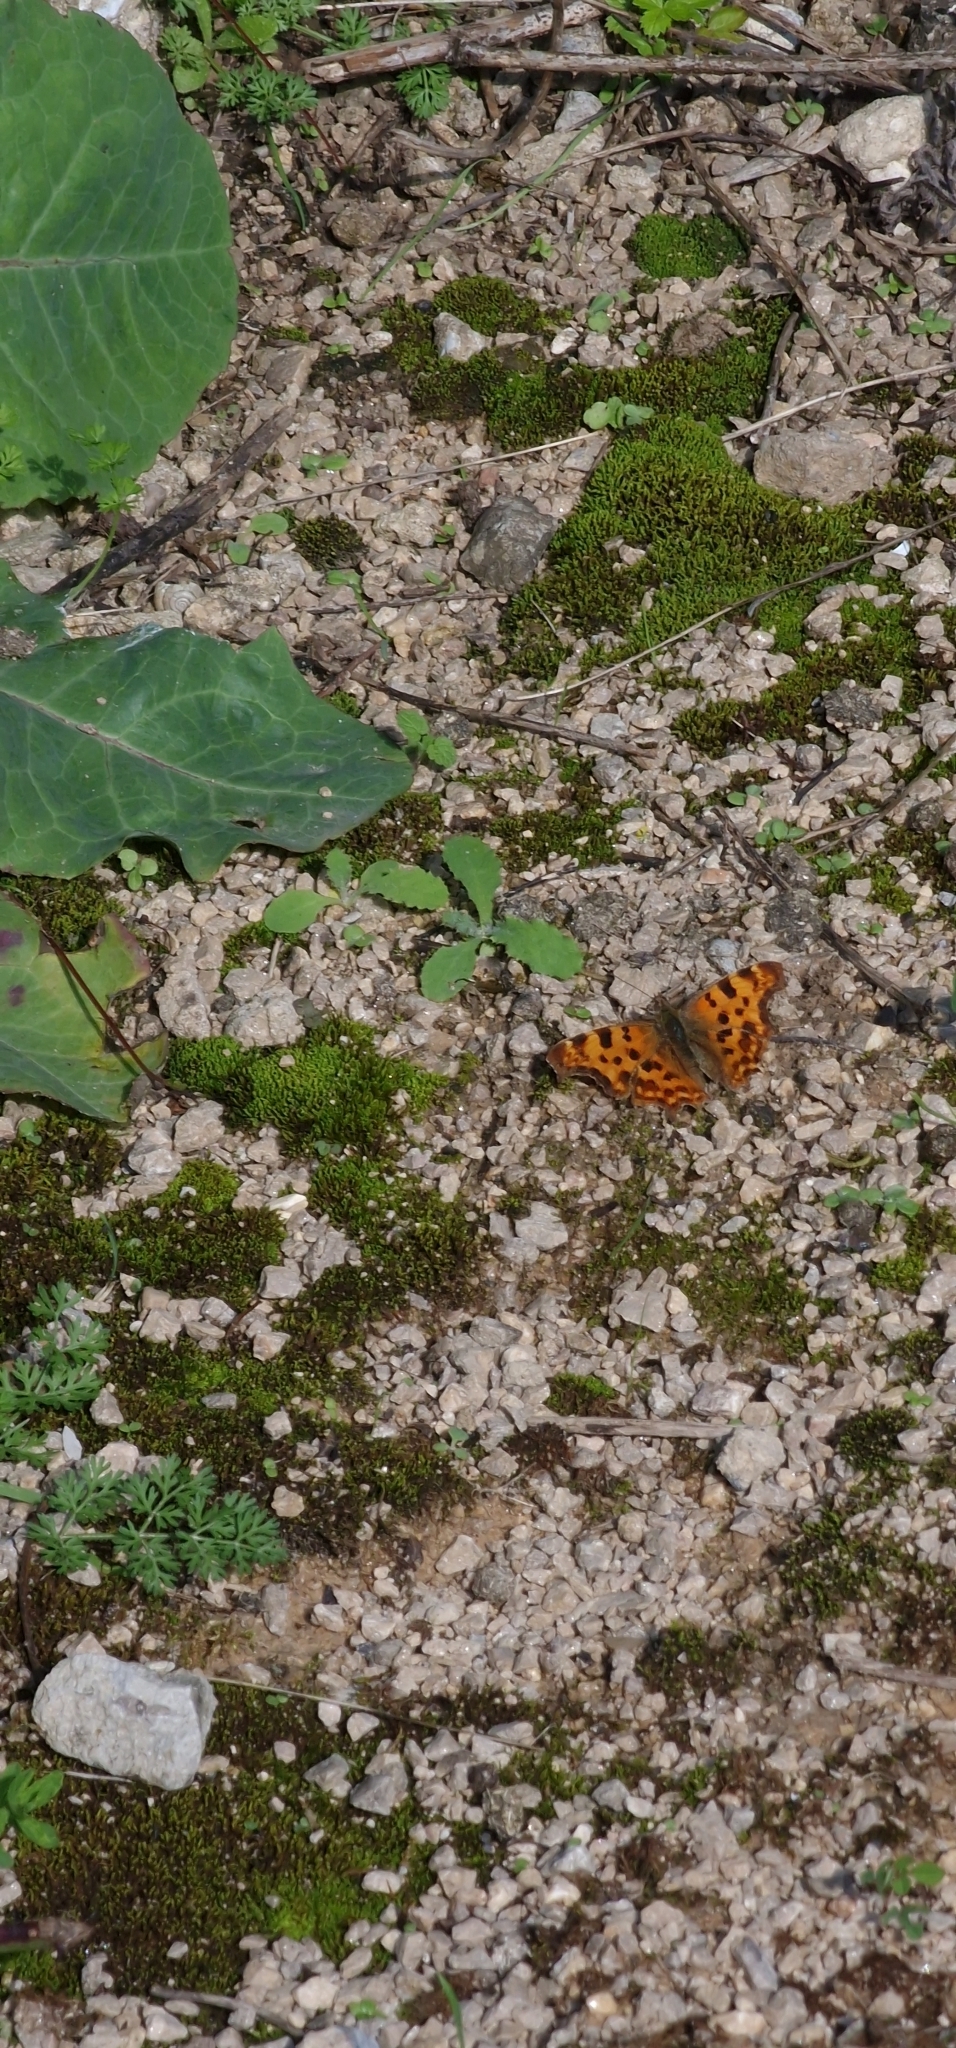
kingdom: Animalia
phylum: Arthropoda
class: Insecta
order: Lepidoptera
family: Nymphalidae
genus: Polygonia
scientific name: Polygonia c-album
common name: Comma
